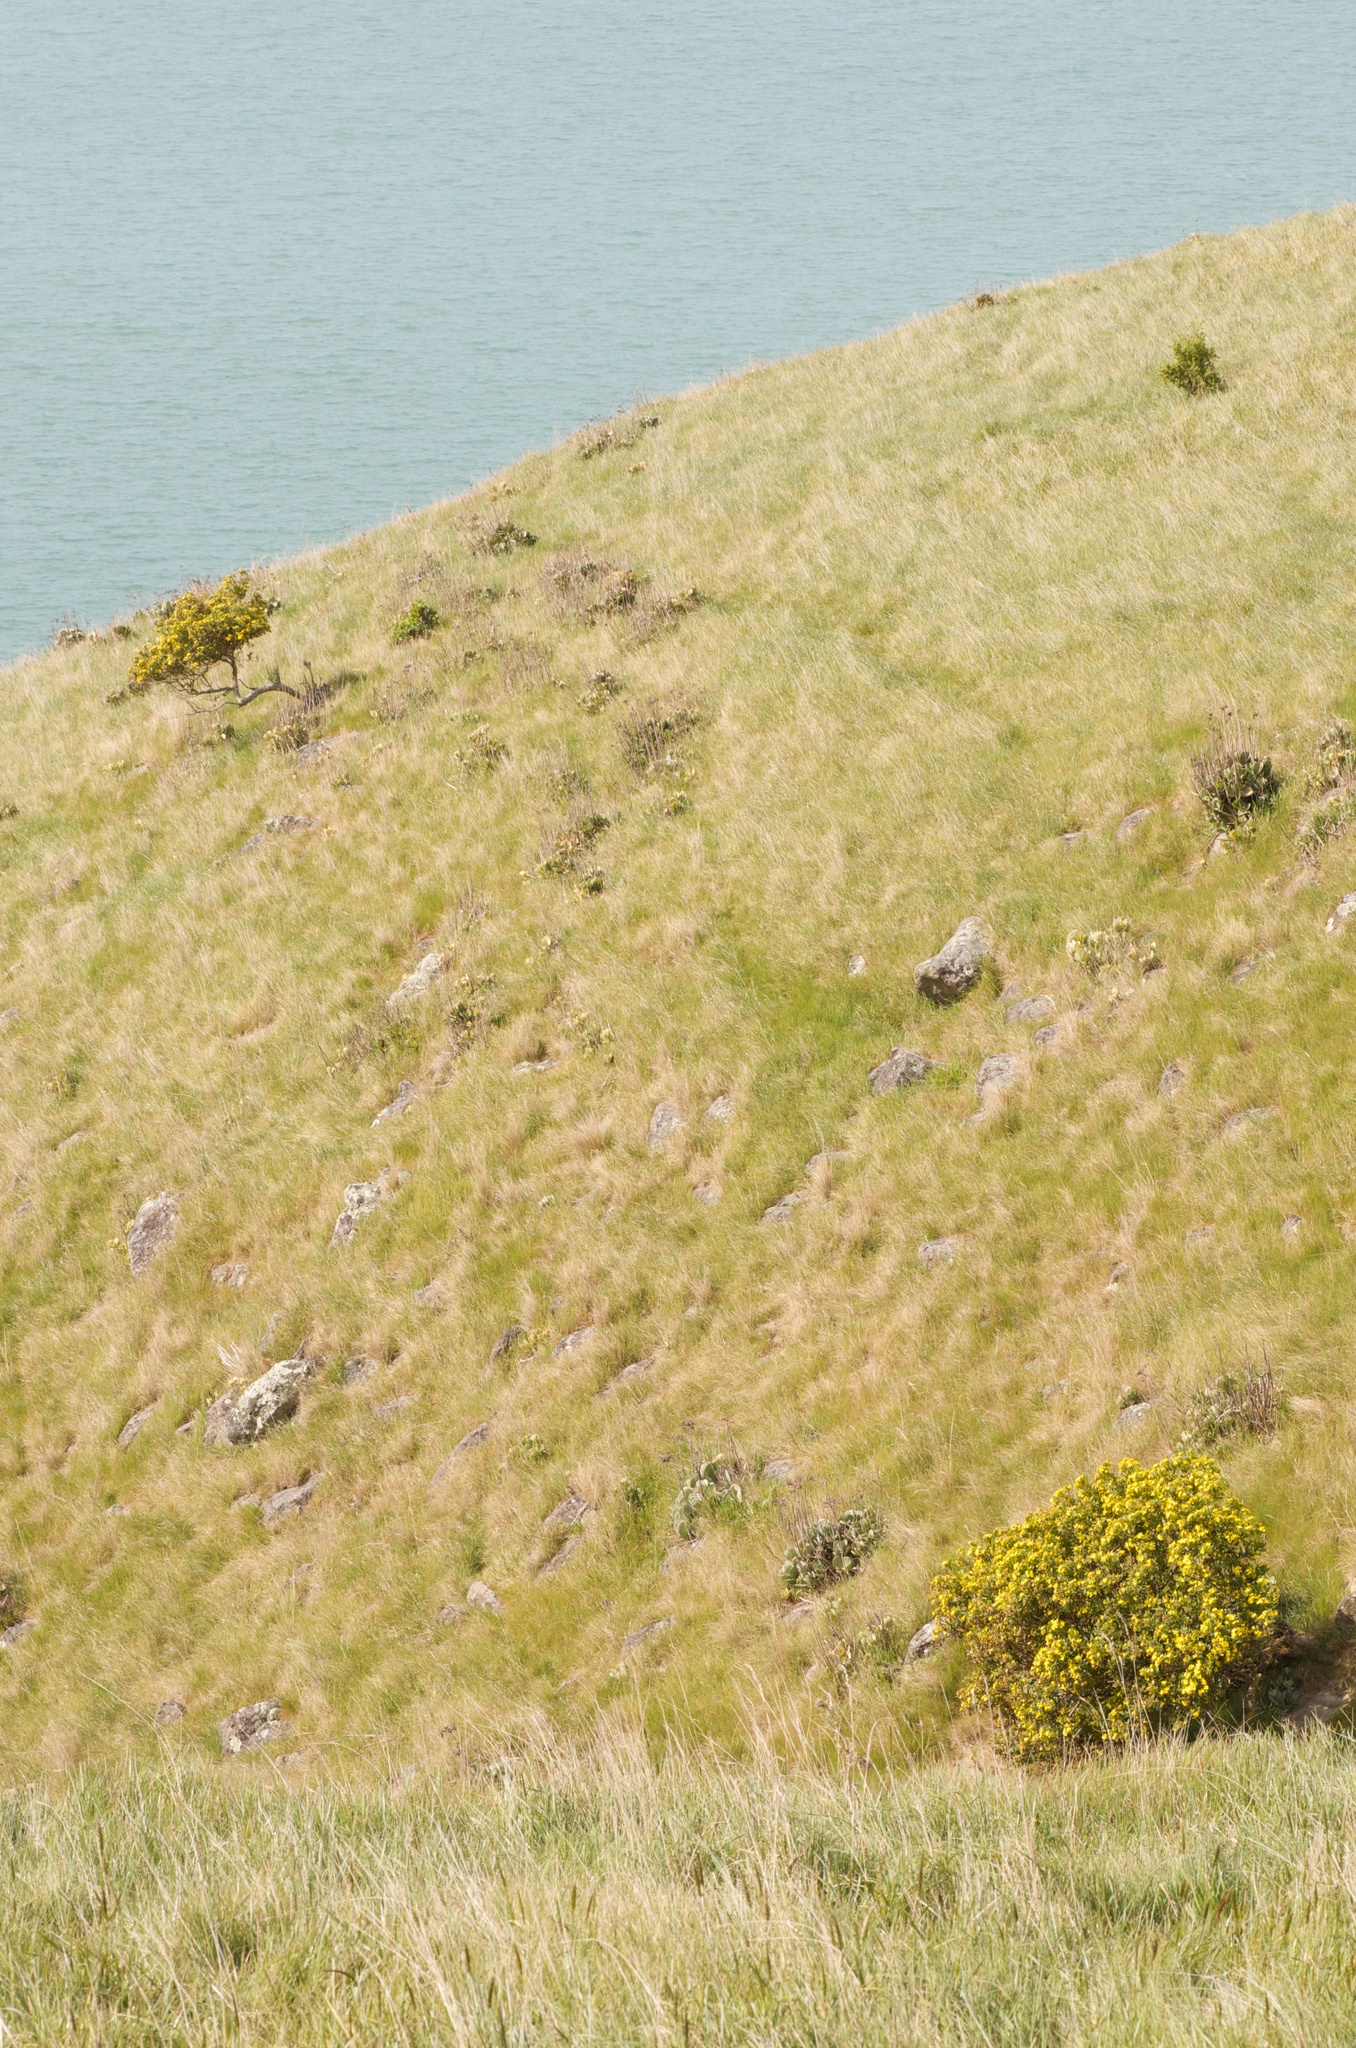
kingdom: Plantae
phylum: Tracheophyta
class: Magnoliopsida
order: Asterales
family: Asteraceae
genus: Osteospermum
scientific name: Osteospermum moniliferum
